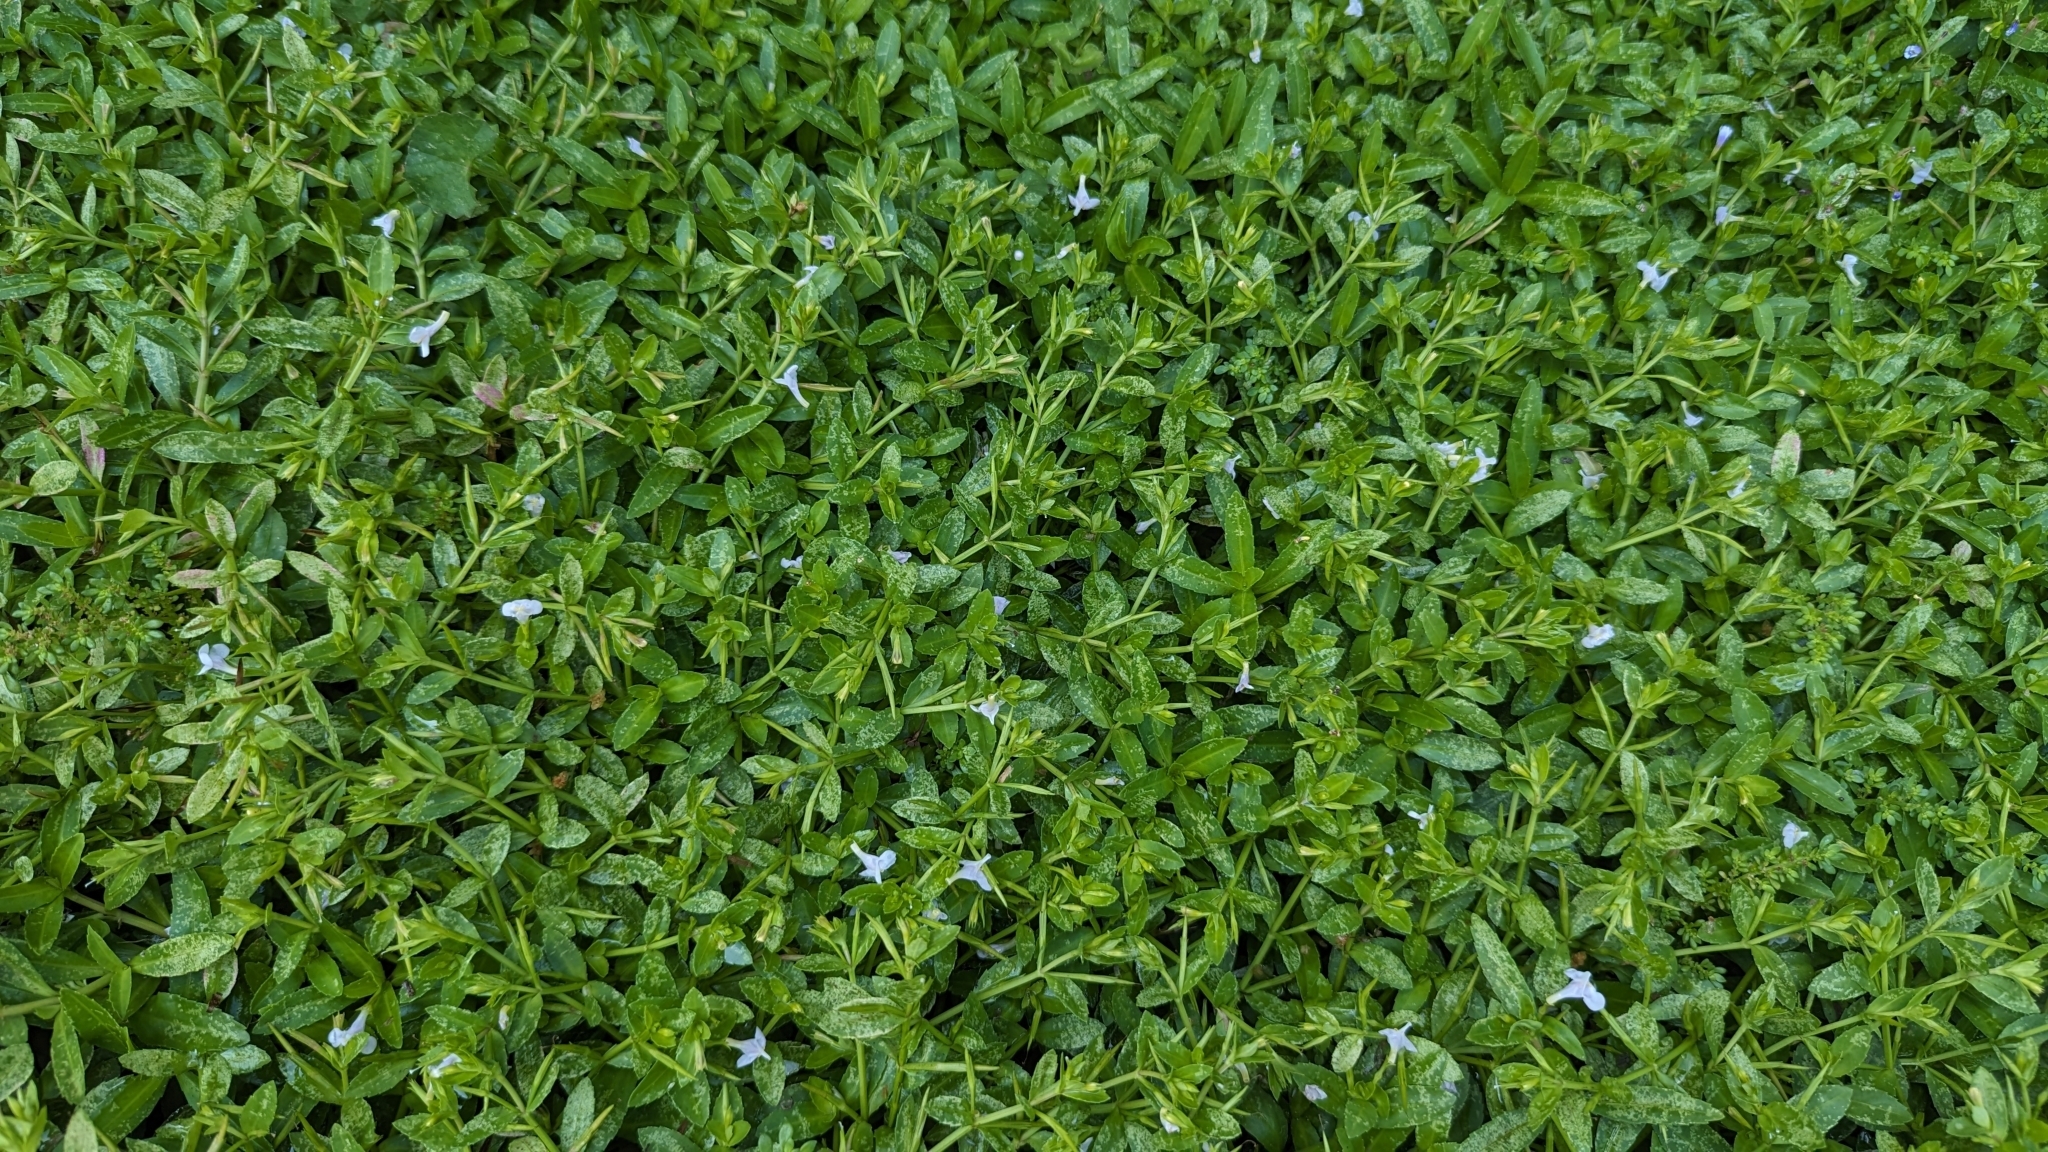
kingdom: Plantae
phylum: Tracheophyta
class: Magnoliopsida
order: Lamiales
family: Linderniaceae
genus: Bonnaya
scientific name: Bonnaya antipoda
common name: Sparrow false pimpernel
